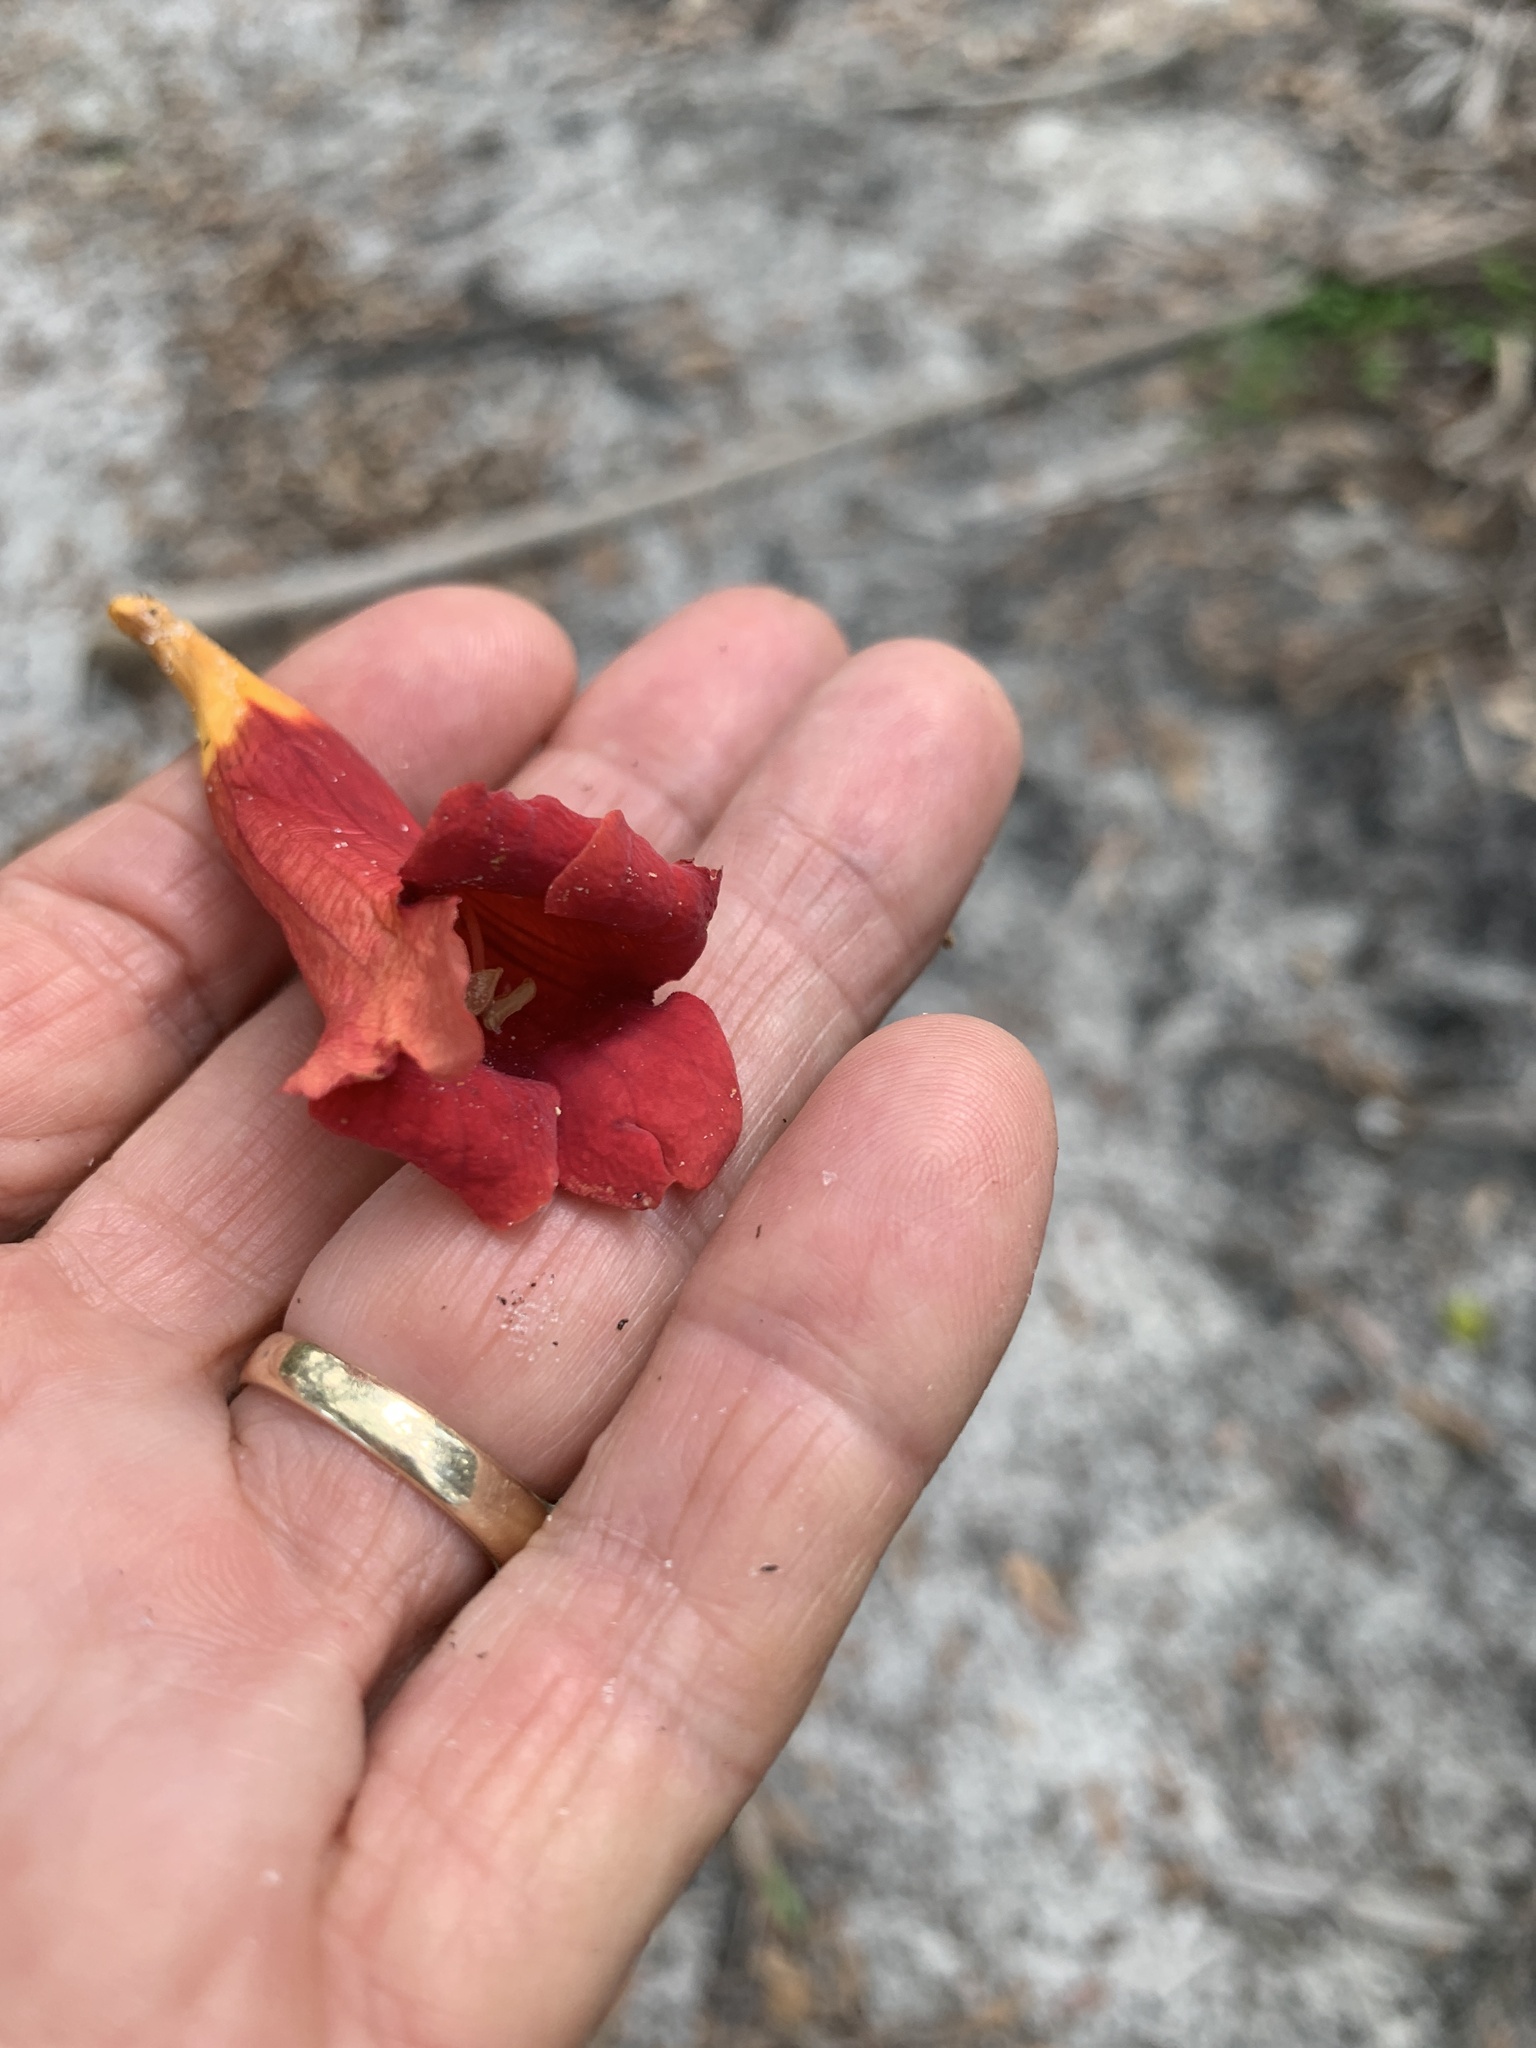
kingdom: Plantae
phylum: Tracheophyta
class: Magnoliopsida
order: Lamiales
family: Bignoniaceae
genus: Campsis
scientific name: Campsis radicans
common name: Trumpet-creeper
